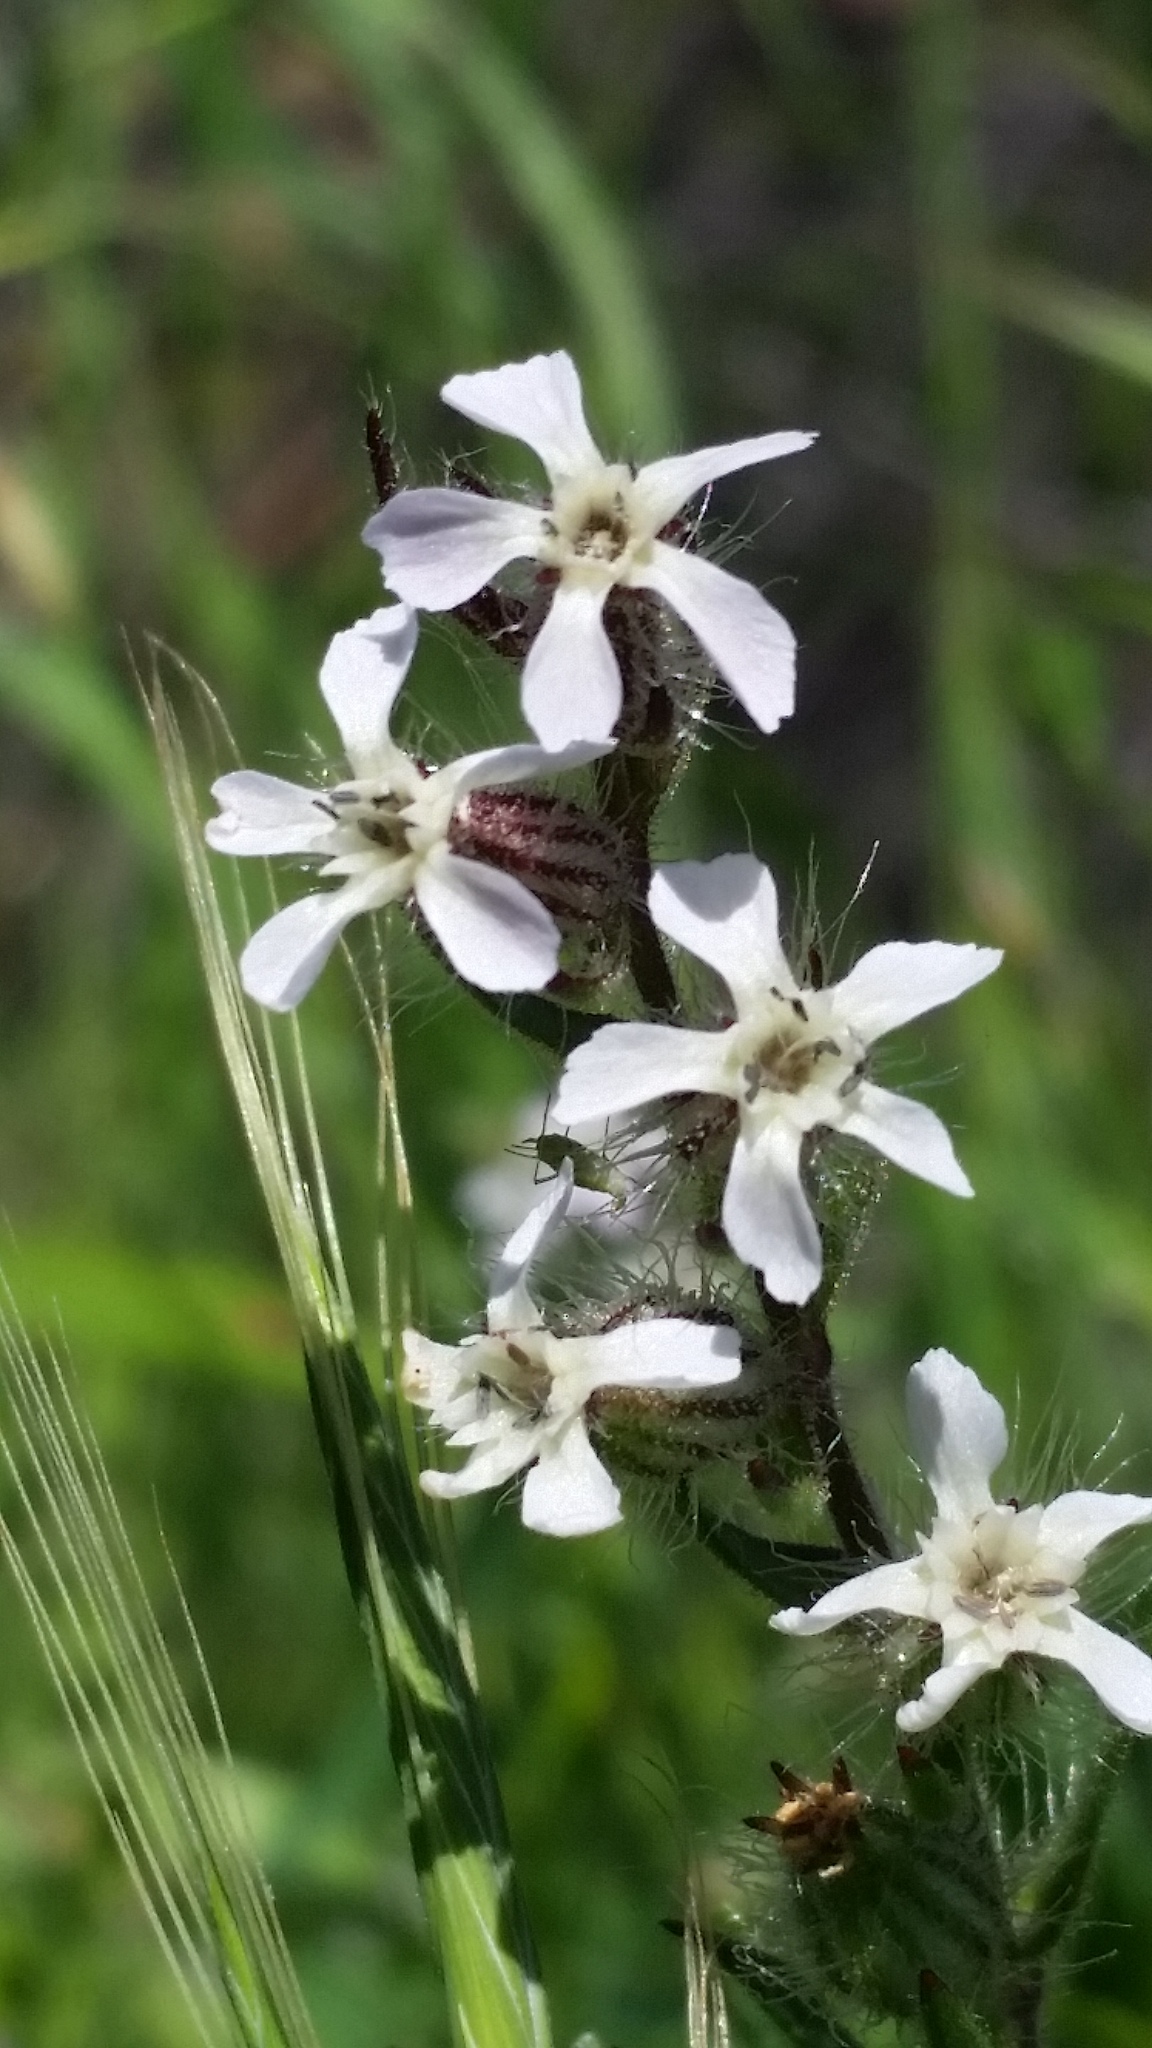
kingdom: Plantae
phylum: Tracheophyta
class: Magnoliopsida
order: Caryophyllales
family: Caryophyllaceae
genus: Silene
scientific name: Silene gallica
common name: Small-flowered catchfly
